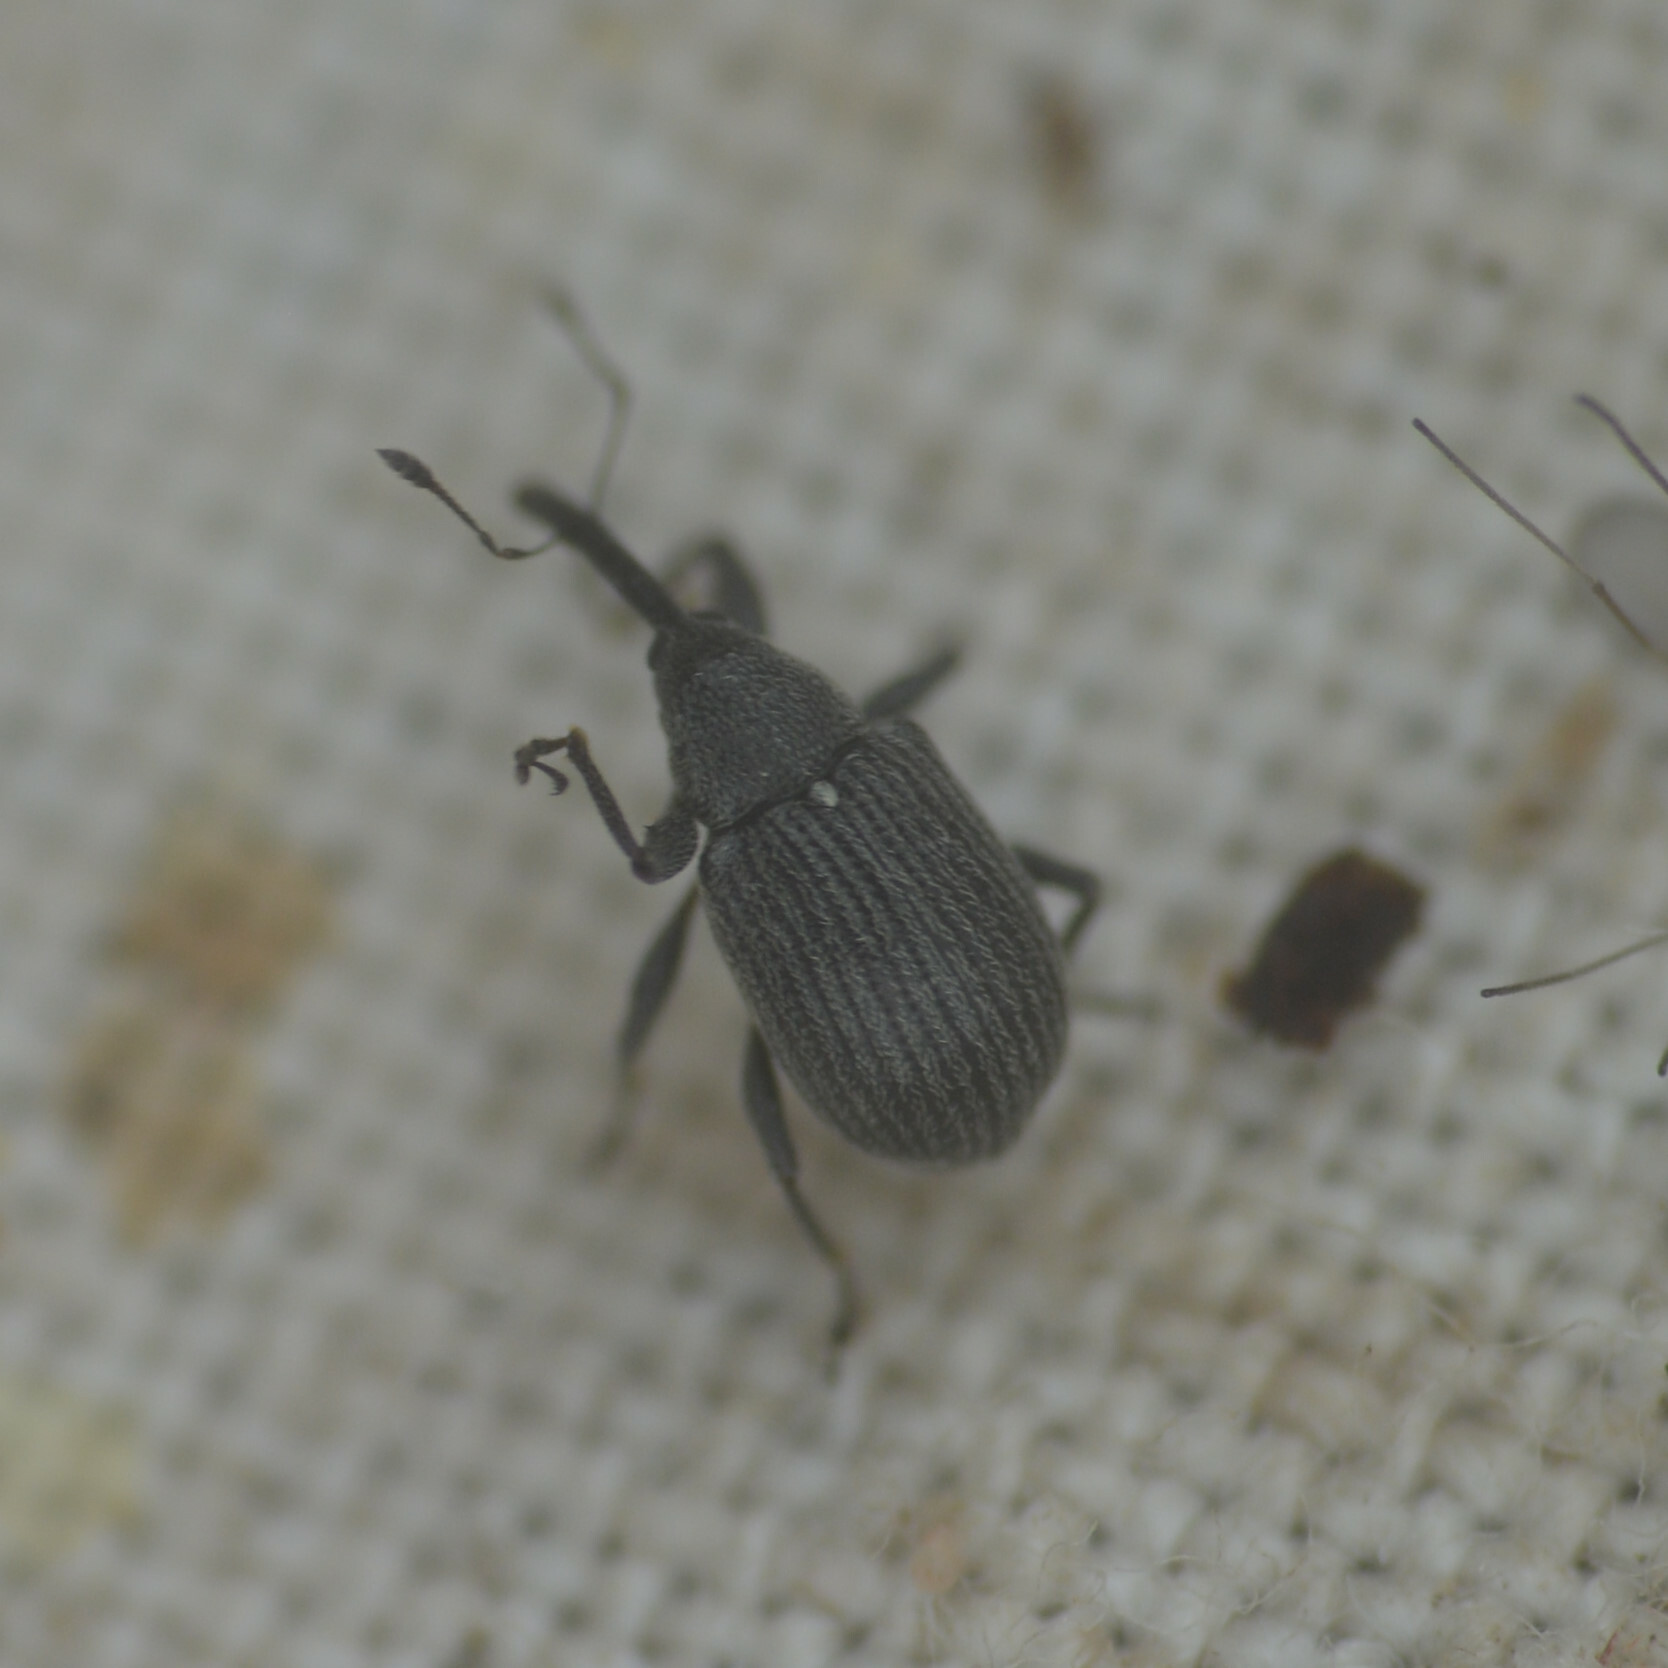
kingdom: Animalia
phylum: Arthropoda
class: Insecta
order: Coleoptera
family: Curculionidae
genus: Anthonomus
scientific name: Anthonomus rubi
